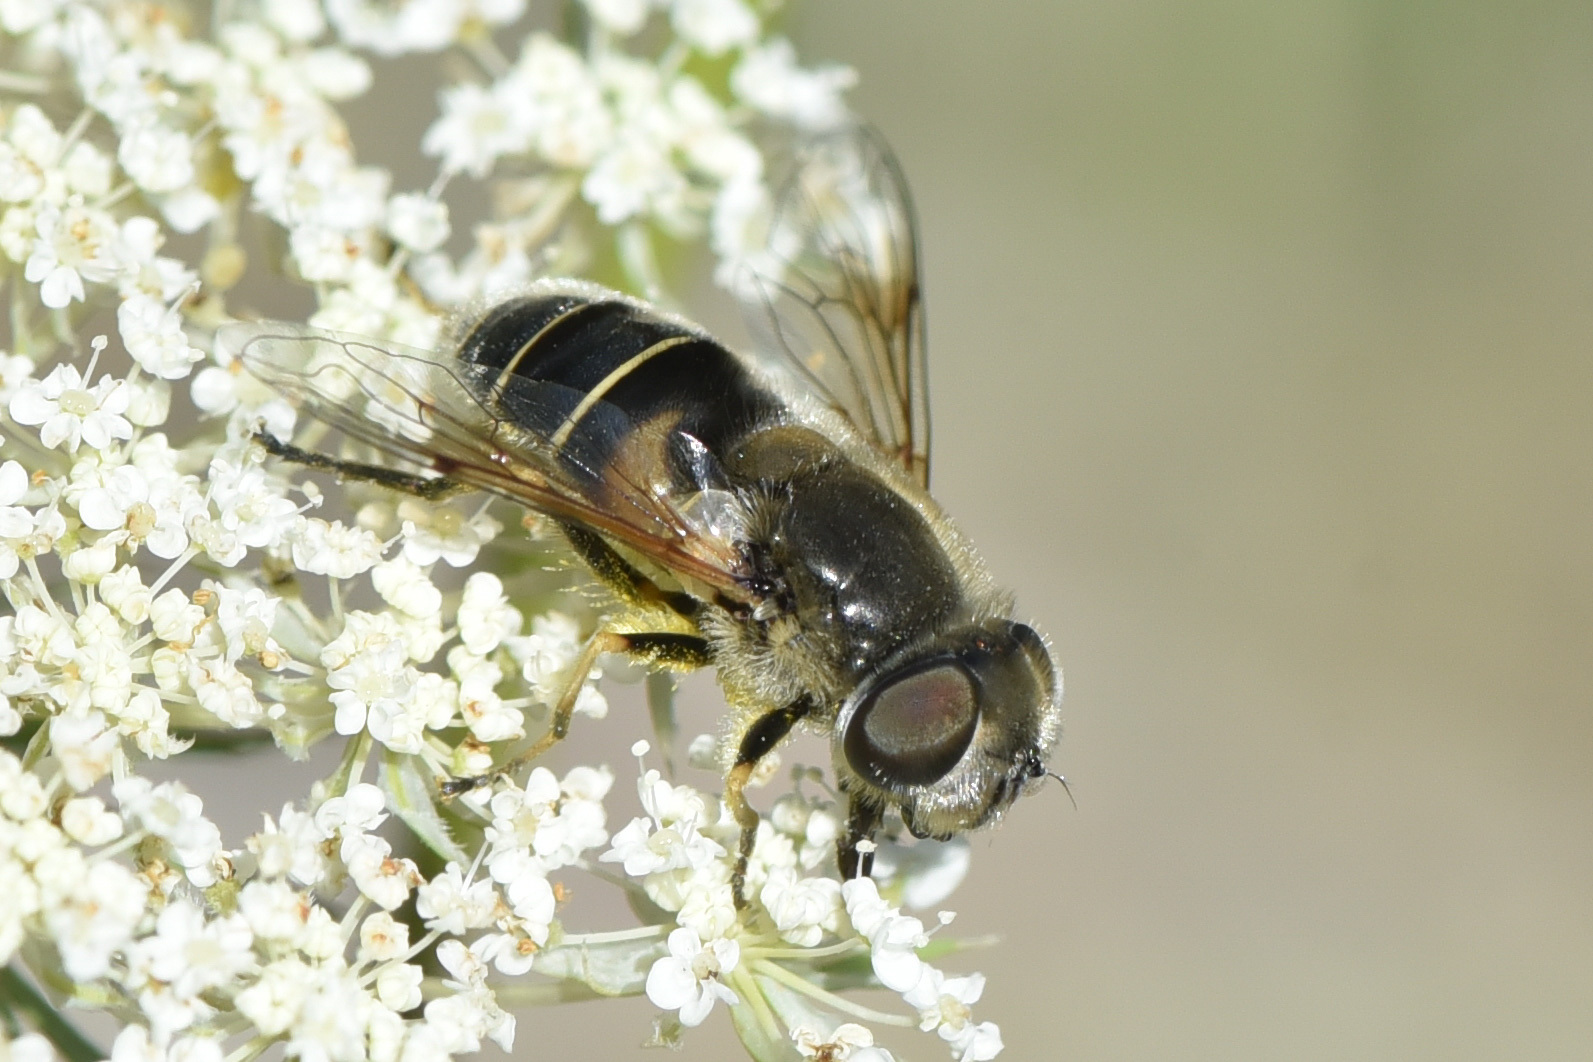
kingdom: Animalia
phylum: Arthropoda
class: Insecta
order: Diptera
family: Syrphidae
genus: Eristalis
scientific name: Eristalis stipator
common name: Yellow-shouldered drone fly
